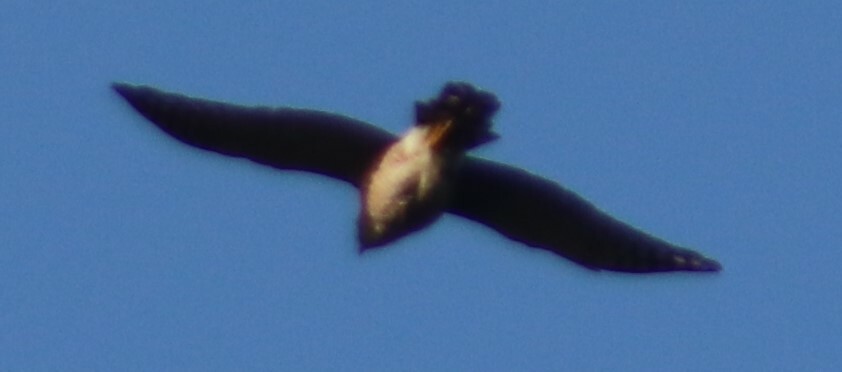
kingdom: Animalia
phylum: Chordata
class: Aves
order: Accipitriformes
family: Accipitridae
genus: Accipiter
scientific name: Accipiter cooperii
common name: Cooper's hawk
